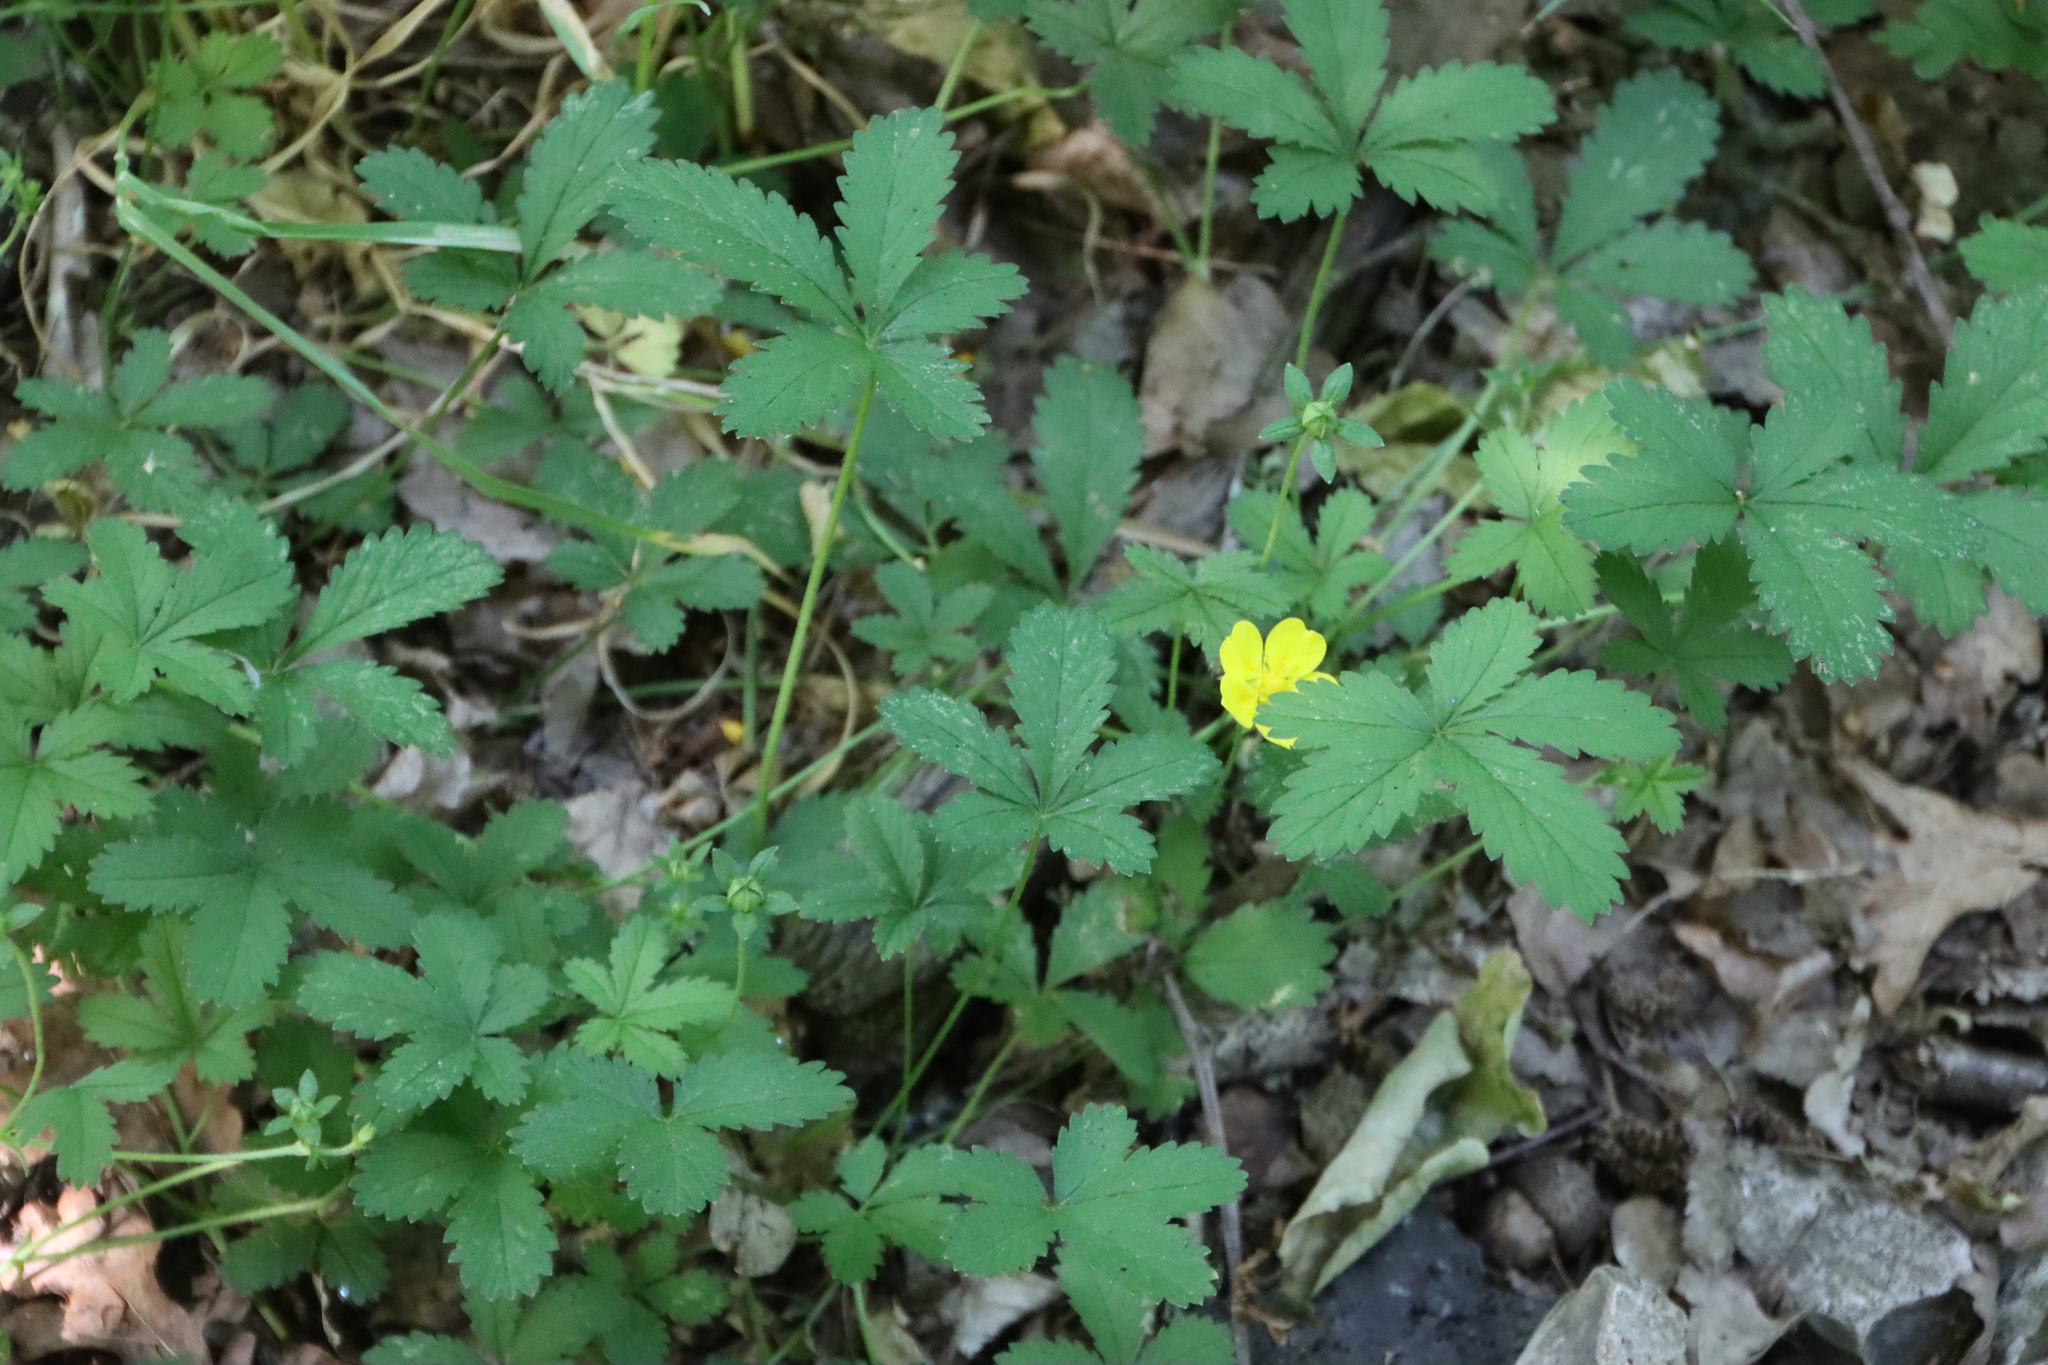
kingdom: Plantae
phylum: Tracheophyta
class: Magnoliopsida
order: Rosales
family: Rosaceae
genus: Potentilla
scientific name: Potentilla reptans
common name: Creeping cinquefoil
